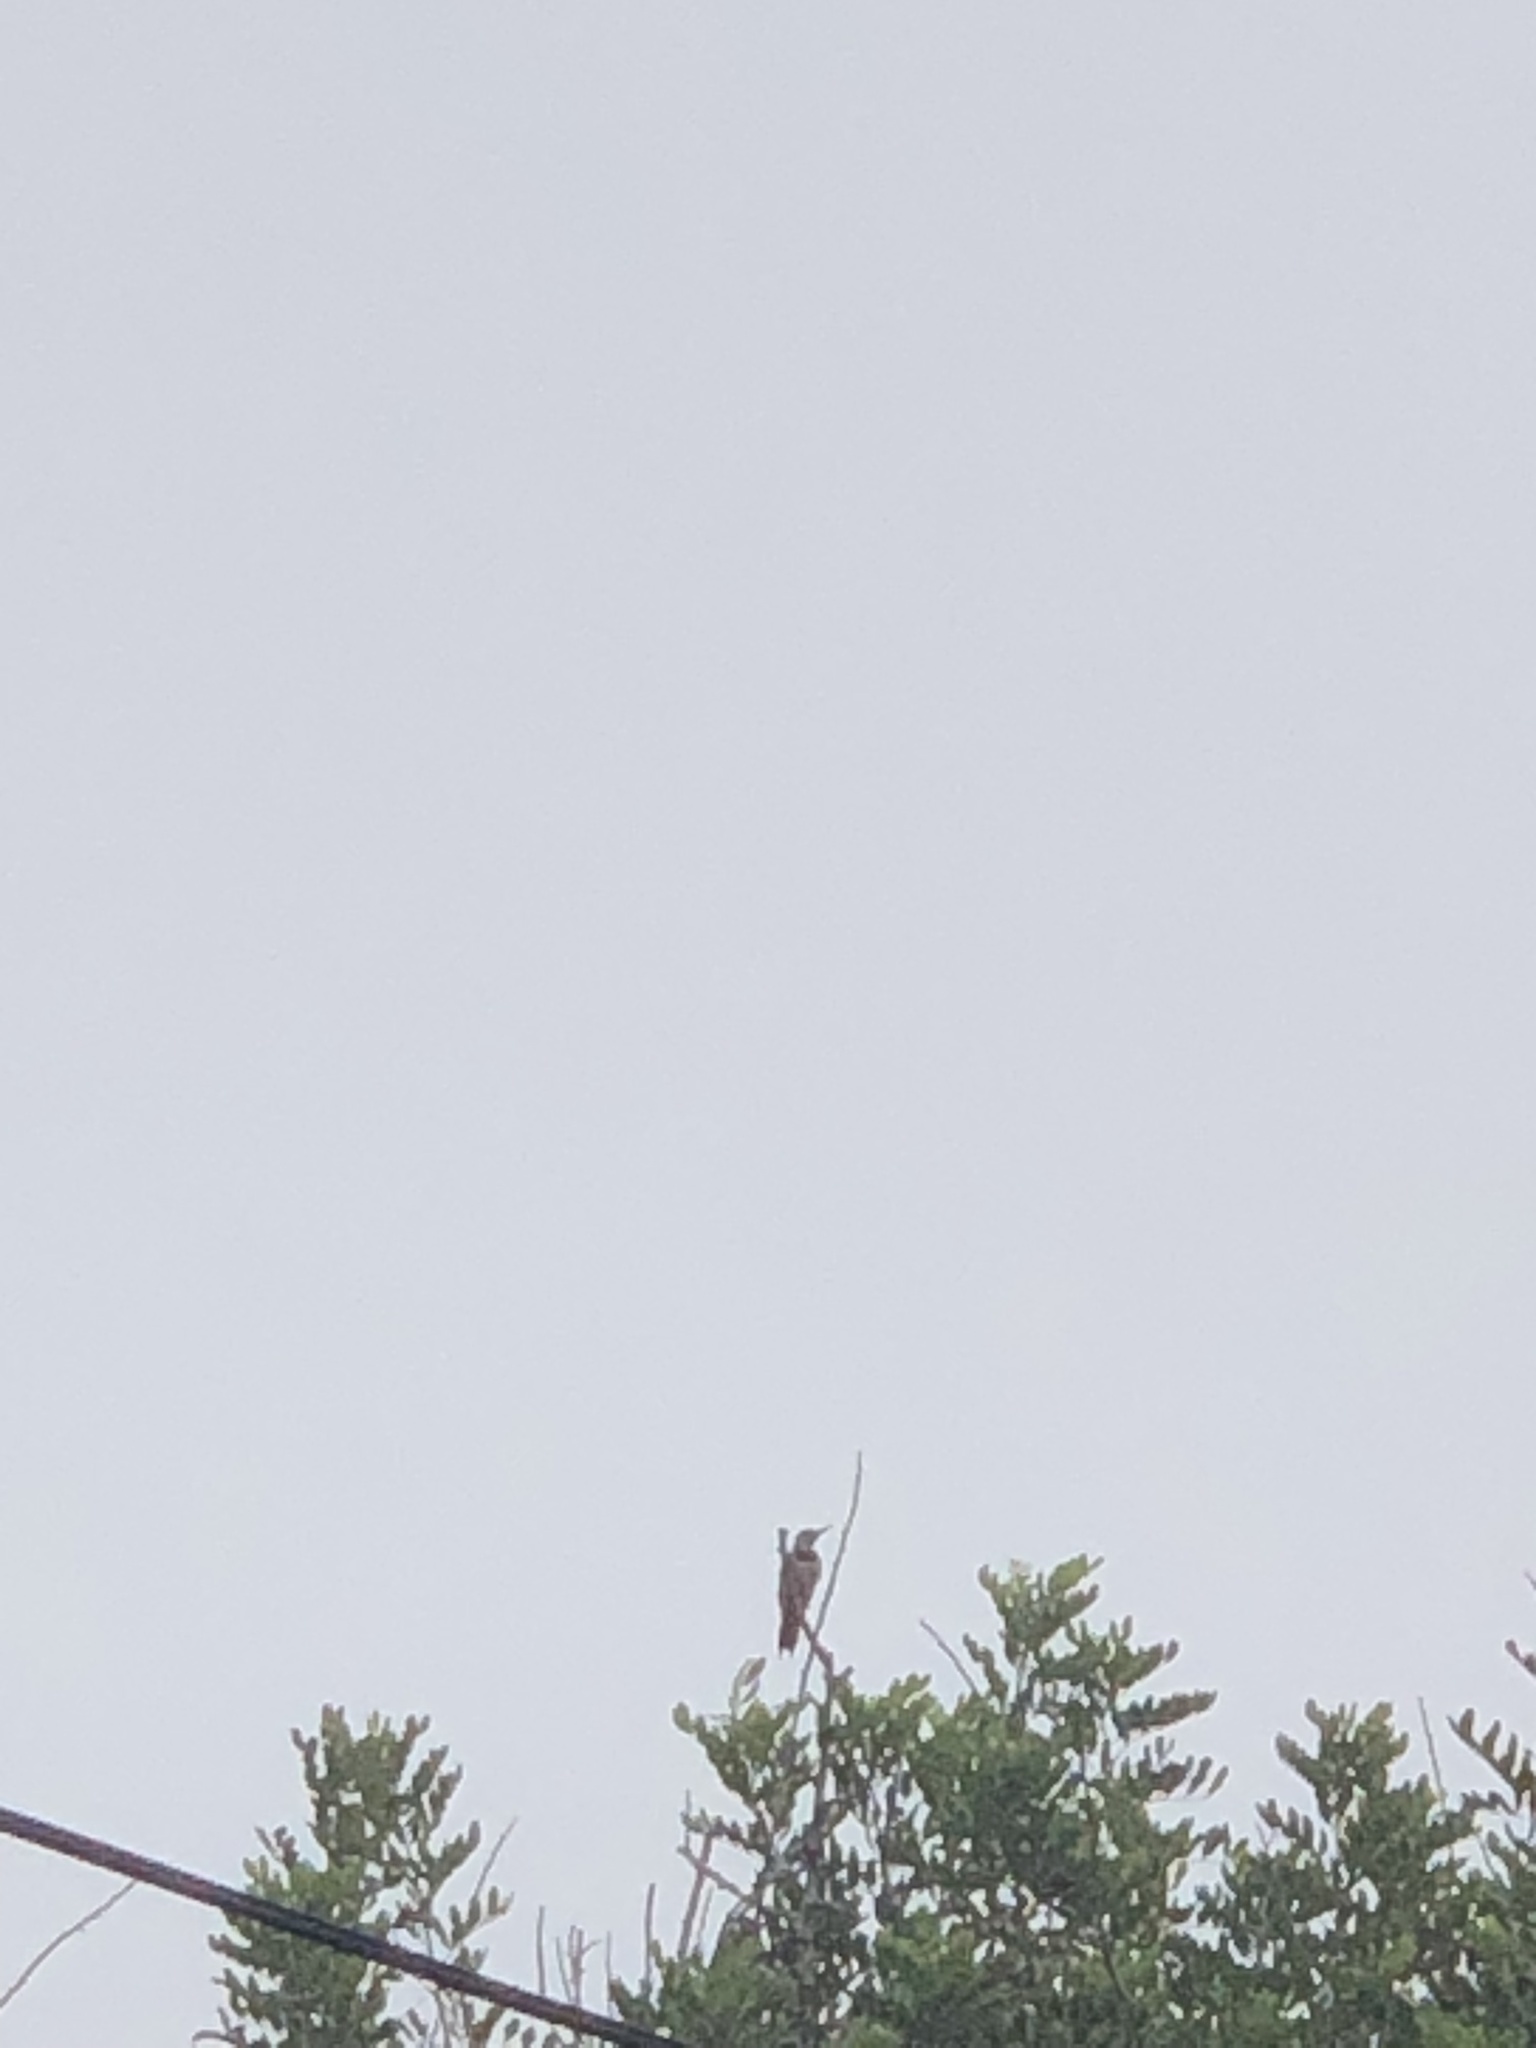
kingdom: Animalia
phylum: Chordata
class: Aves
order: Piciformes
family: Picidae
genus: Colaptes
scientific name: Colaptes auratus
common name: Northern flicker
